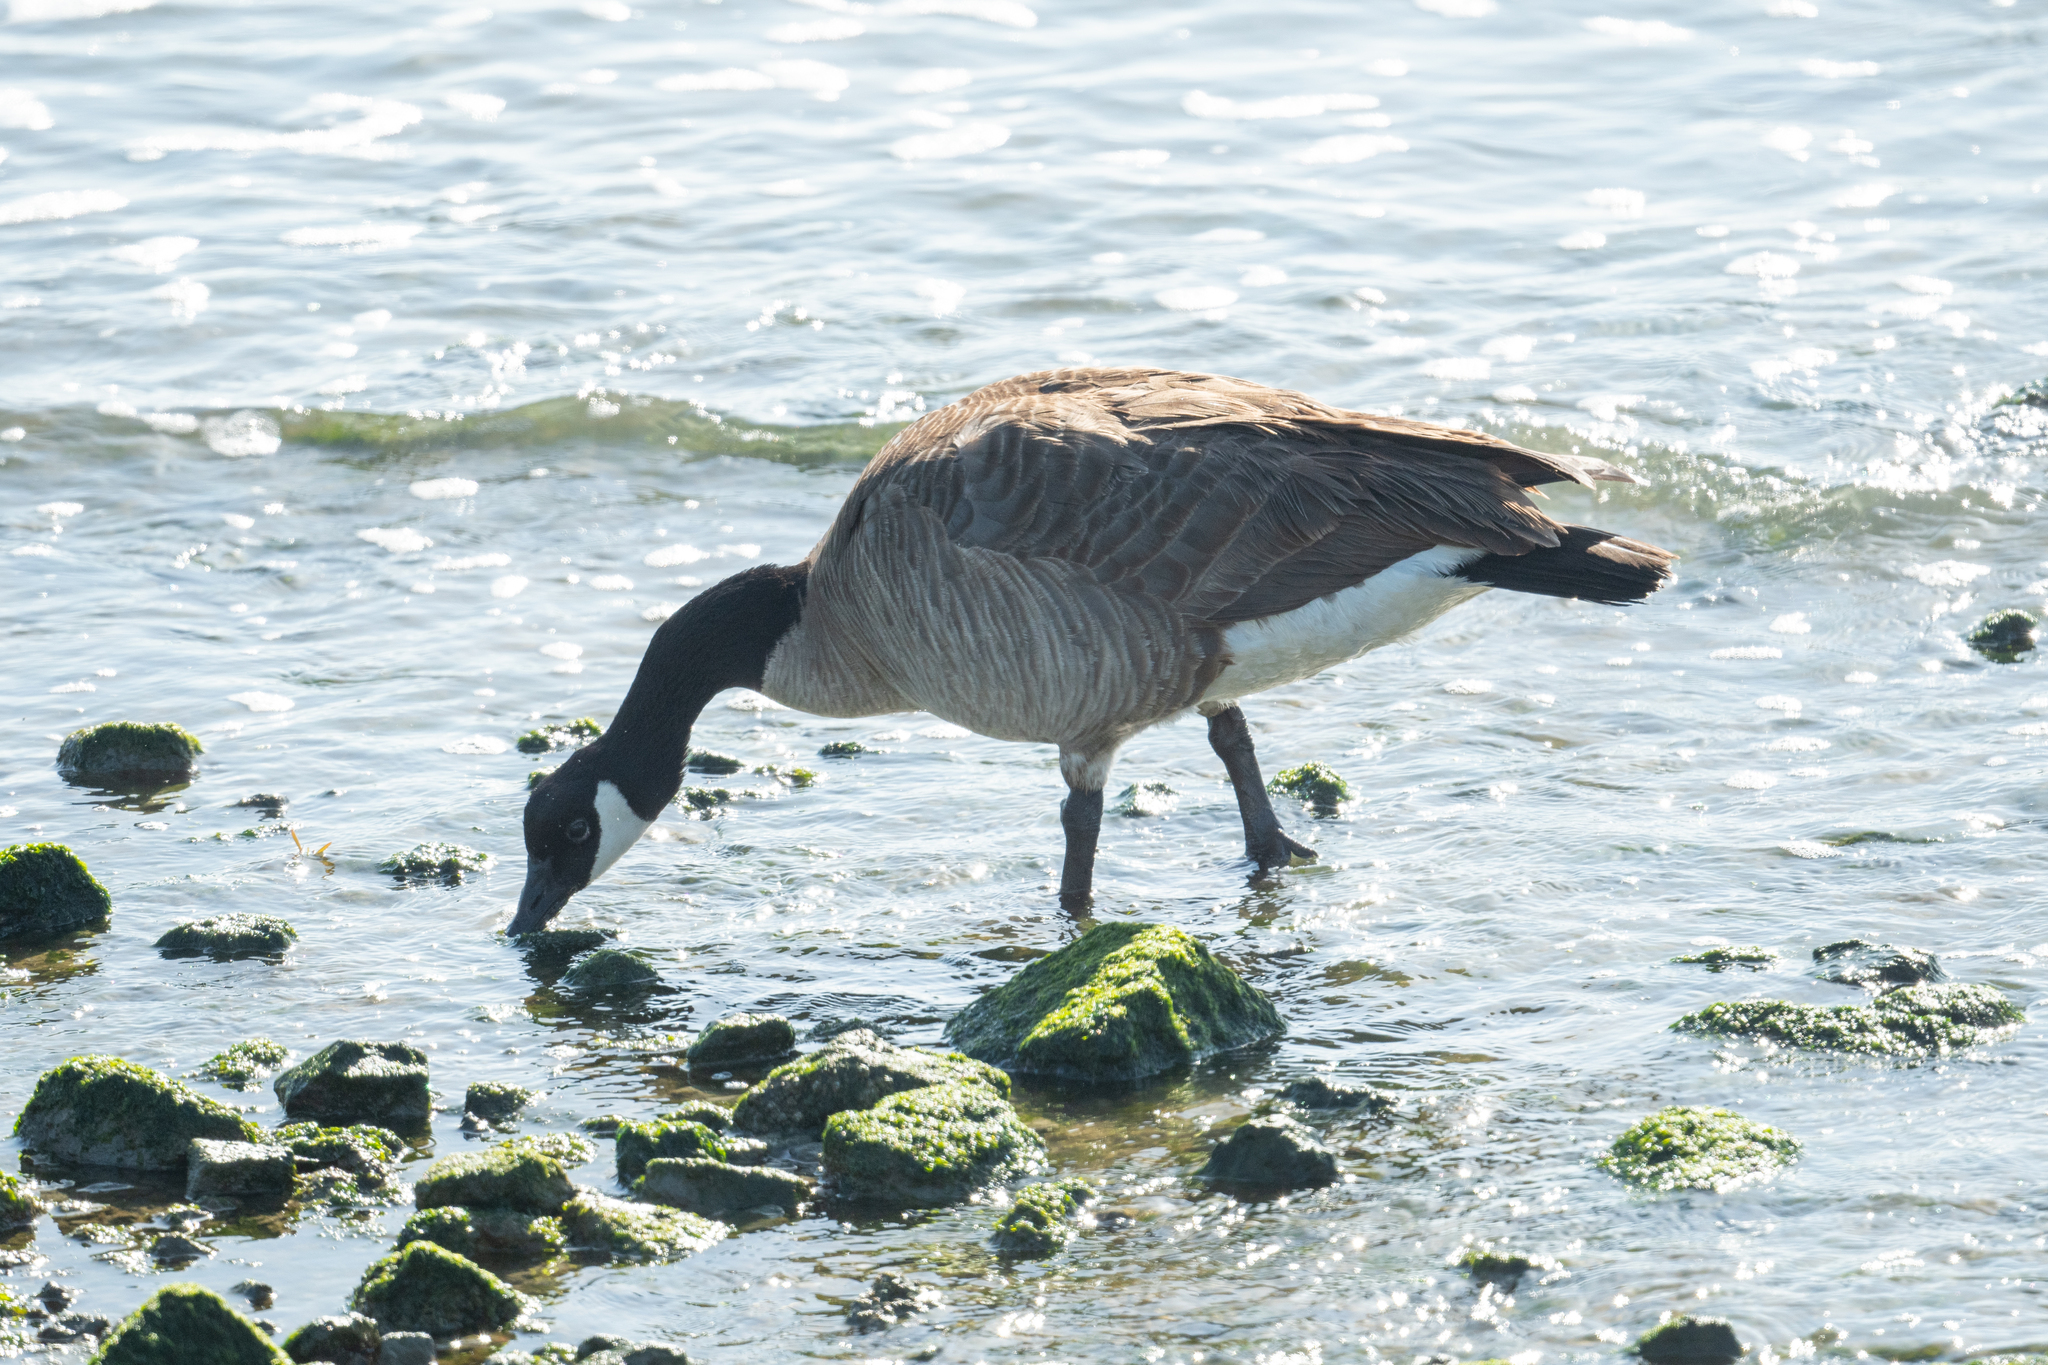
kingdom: Animalia
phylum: Chordata
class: Aves
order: Anseriformes
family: Anatidae
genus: Branta
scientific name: Branta canadensis
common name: Canada goose
